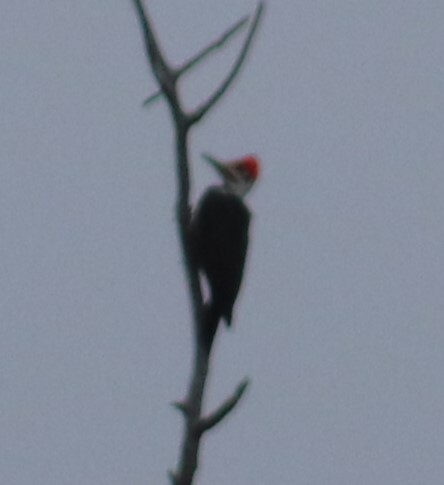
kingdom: Animalia
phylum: Chordata
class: Aves
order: Piciformes
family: Picidae
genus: Dryocopus
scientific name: Dryocopus pileatus
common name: Pileated woodpecker
